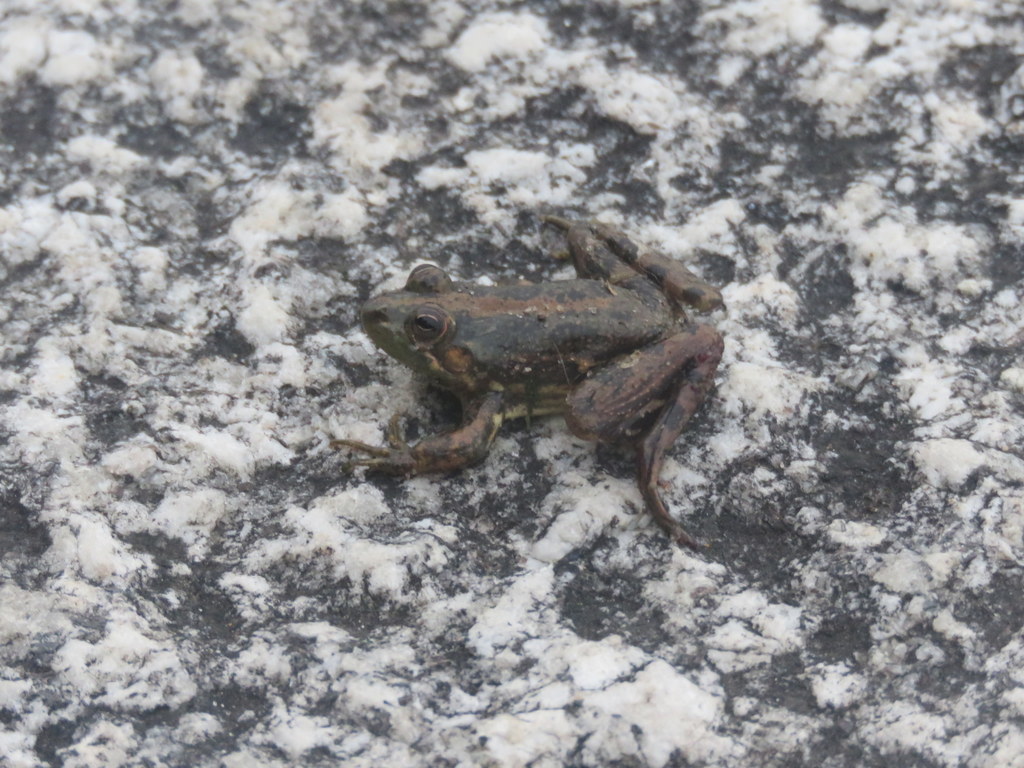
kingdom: Animalia
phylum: Chordata
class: Amphibia
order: Anura
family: Hylidae
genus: Pseudis
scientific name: Pseudis minuta
